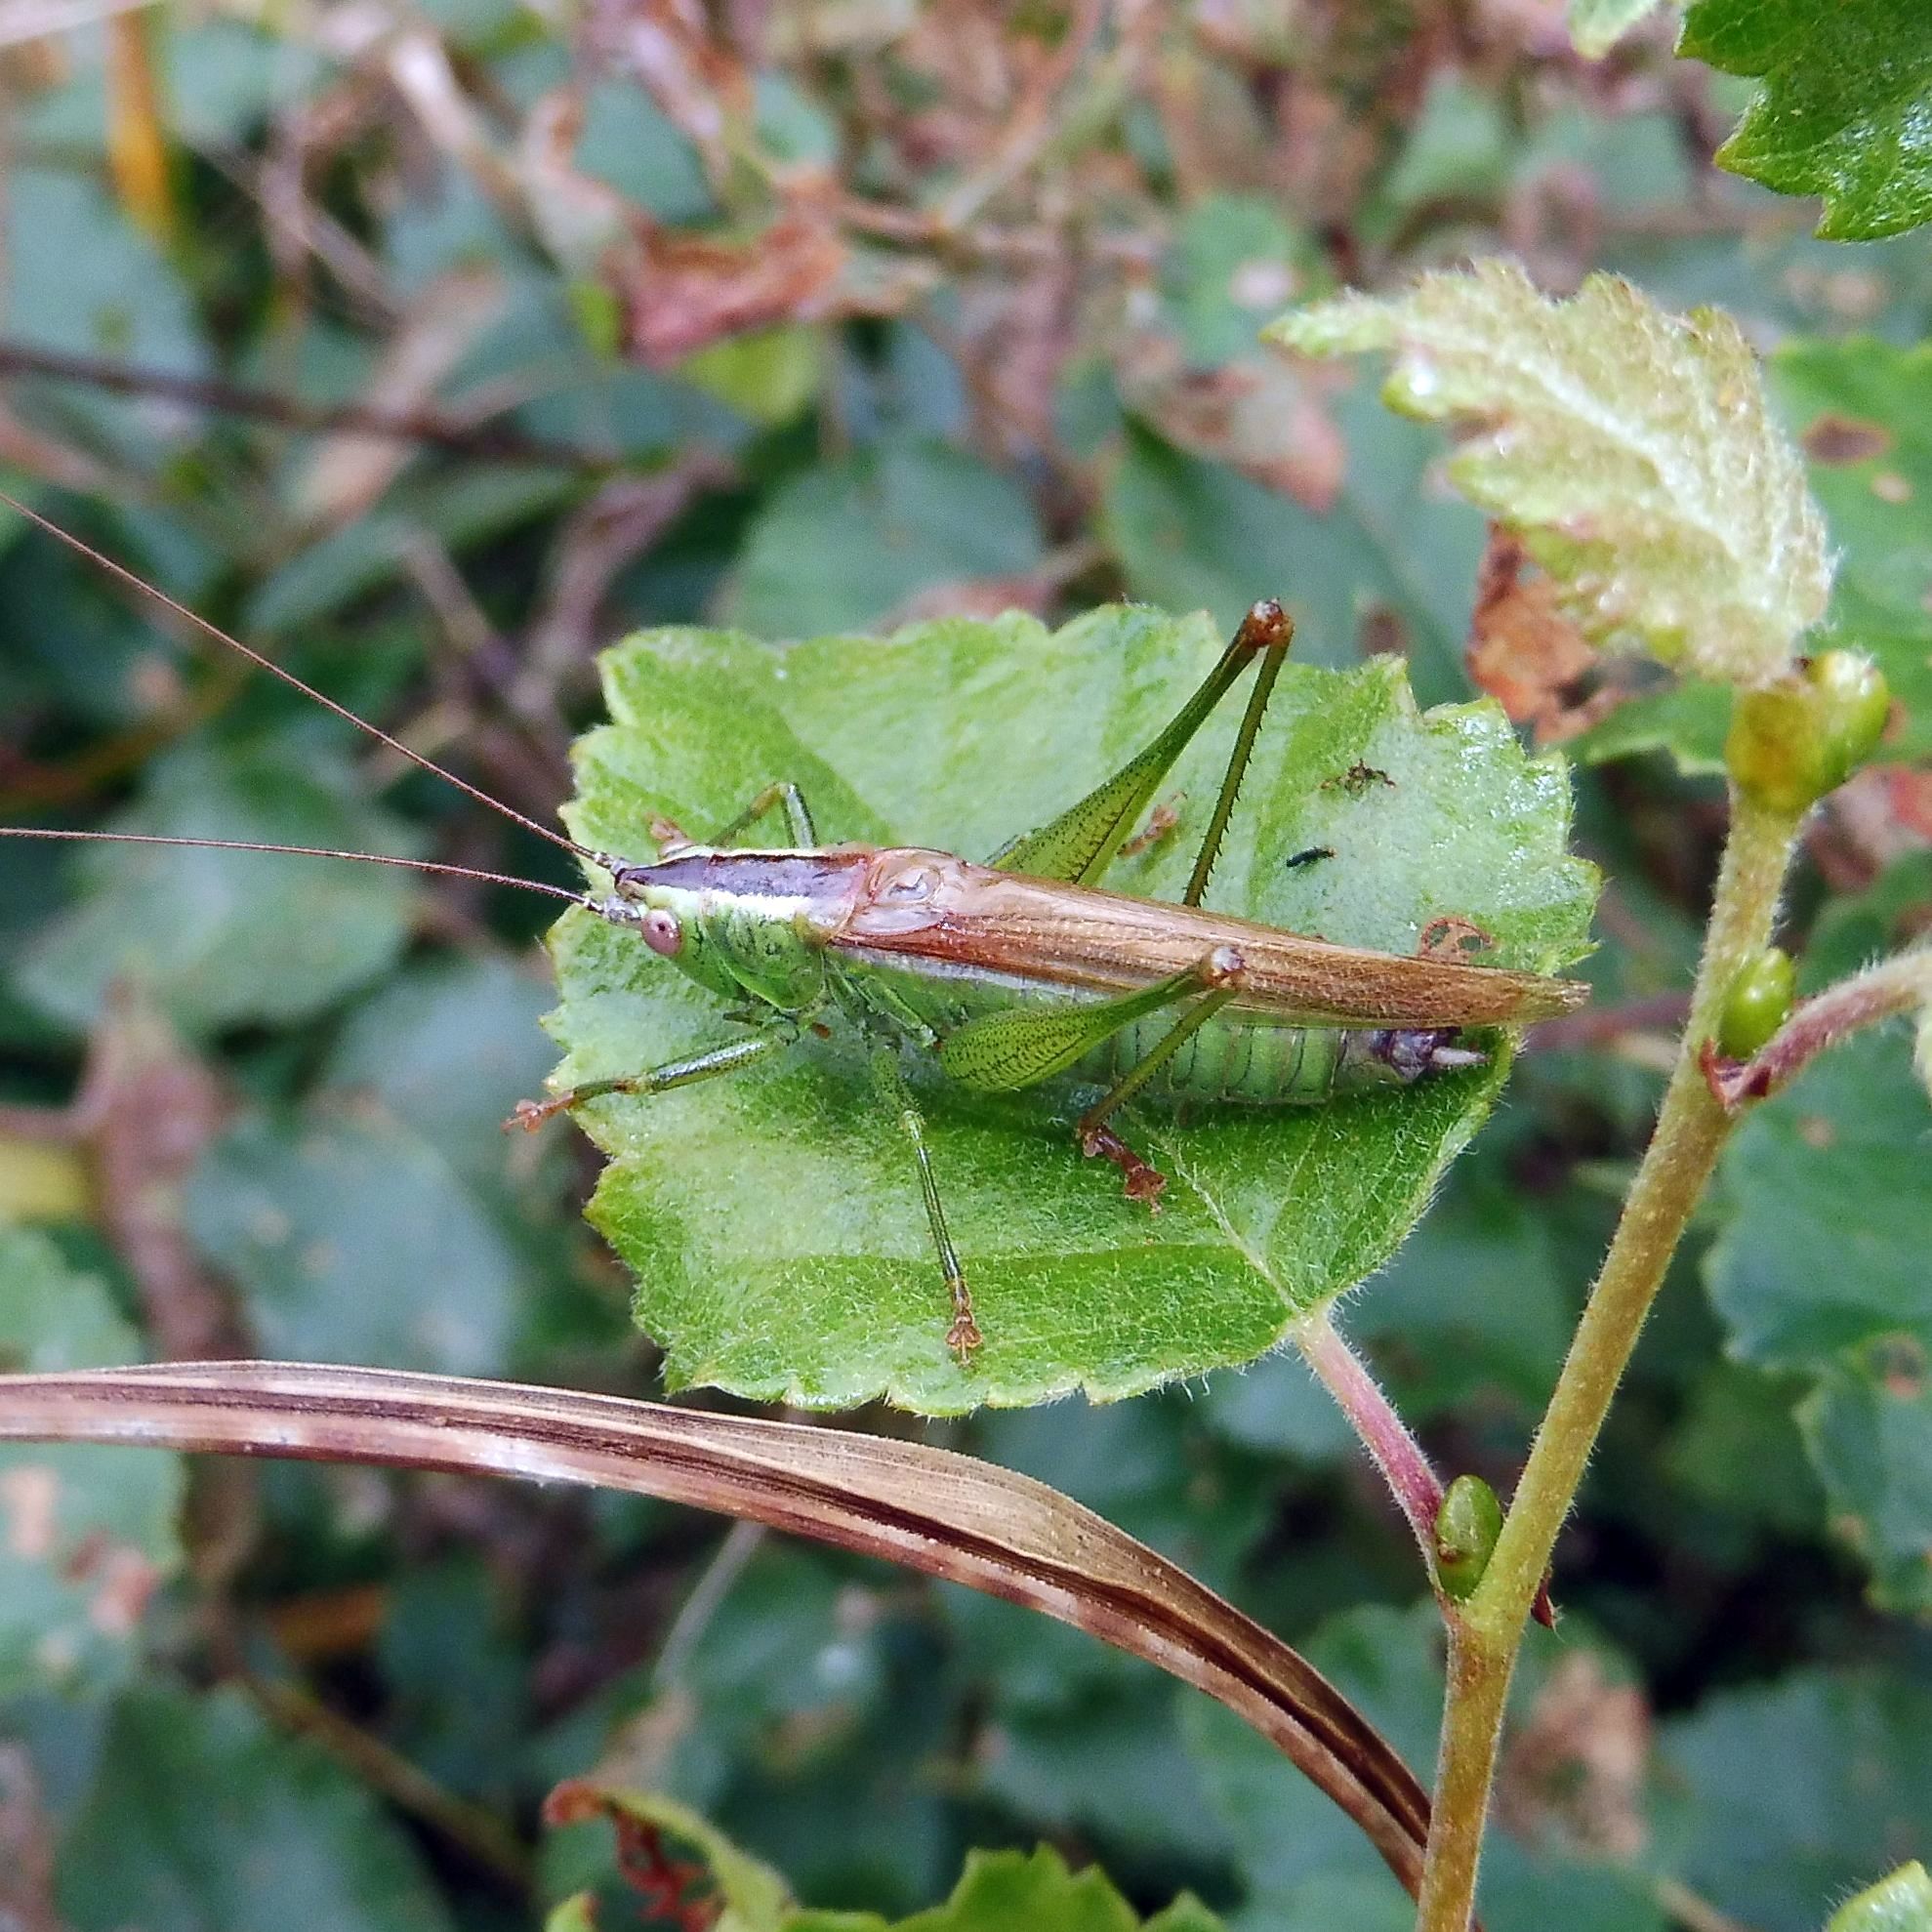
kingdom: Animalia
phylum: Arthropoda
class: Insecta
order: Orthoptera
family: Tettigoniidae
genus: Conocephalus
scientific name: Conocephalus fuscus
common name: Long-winged conehead
